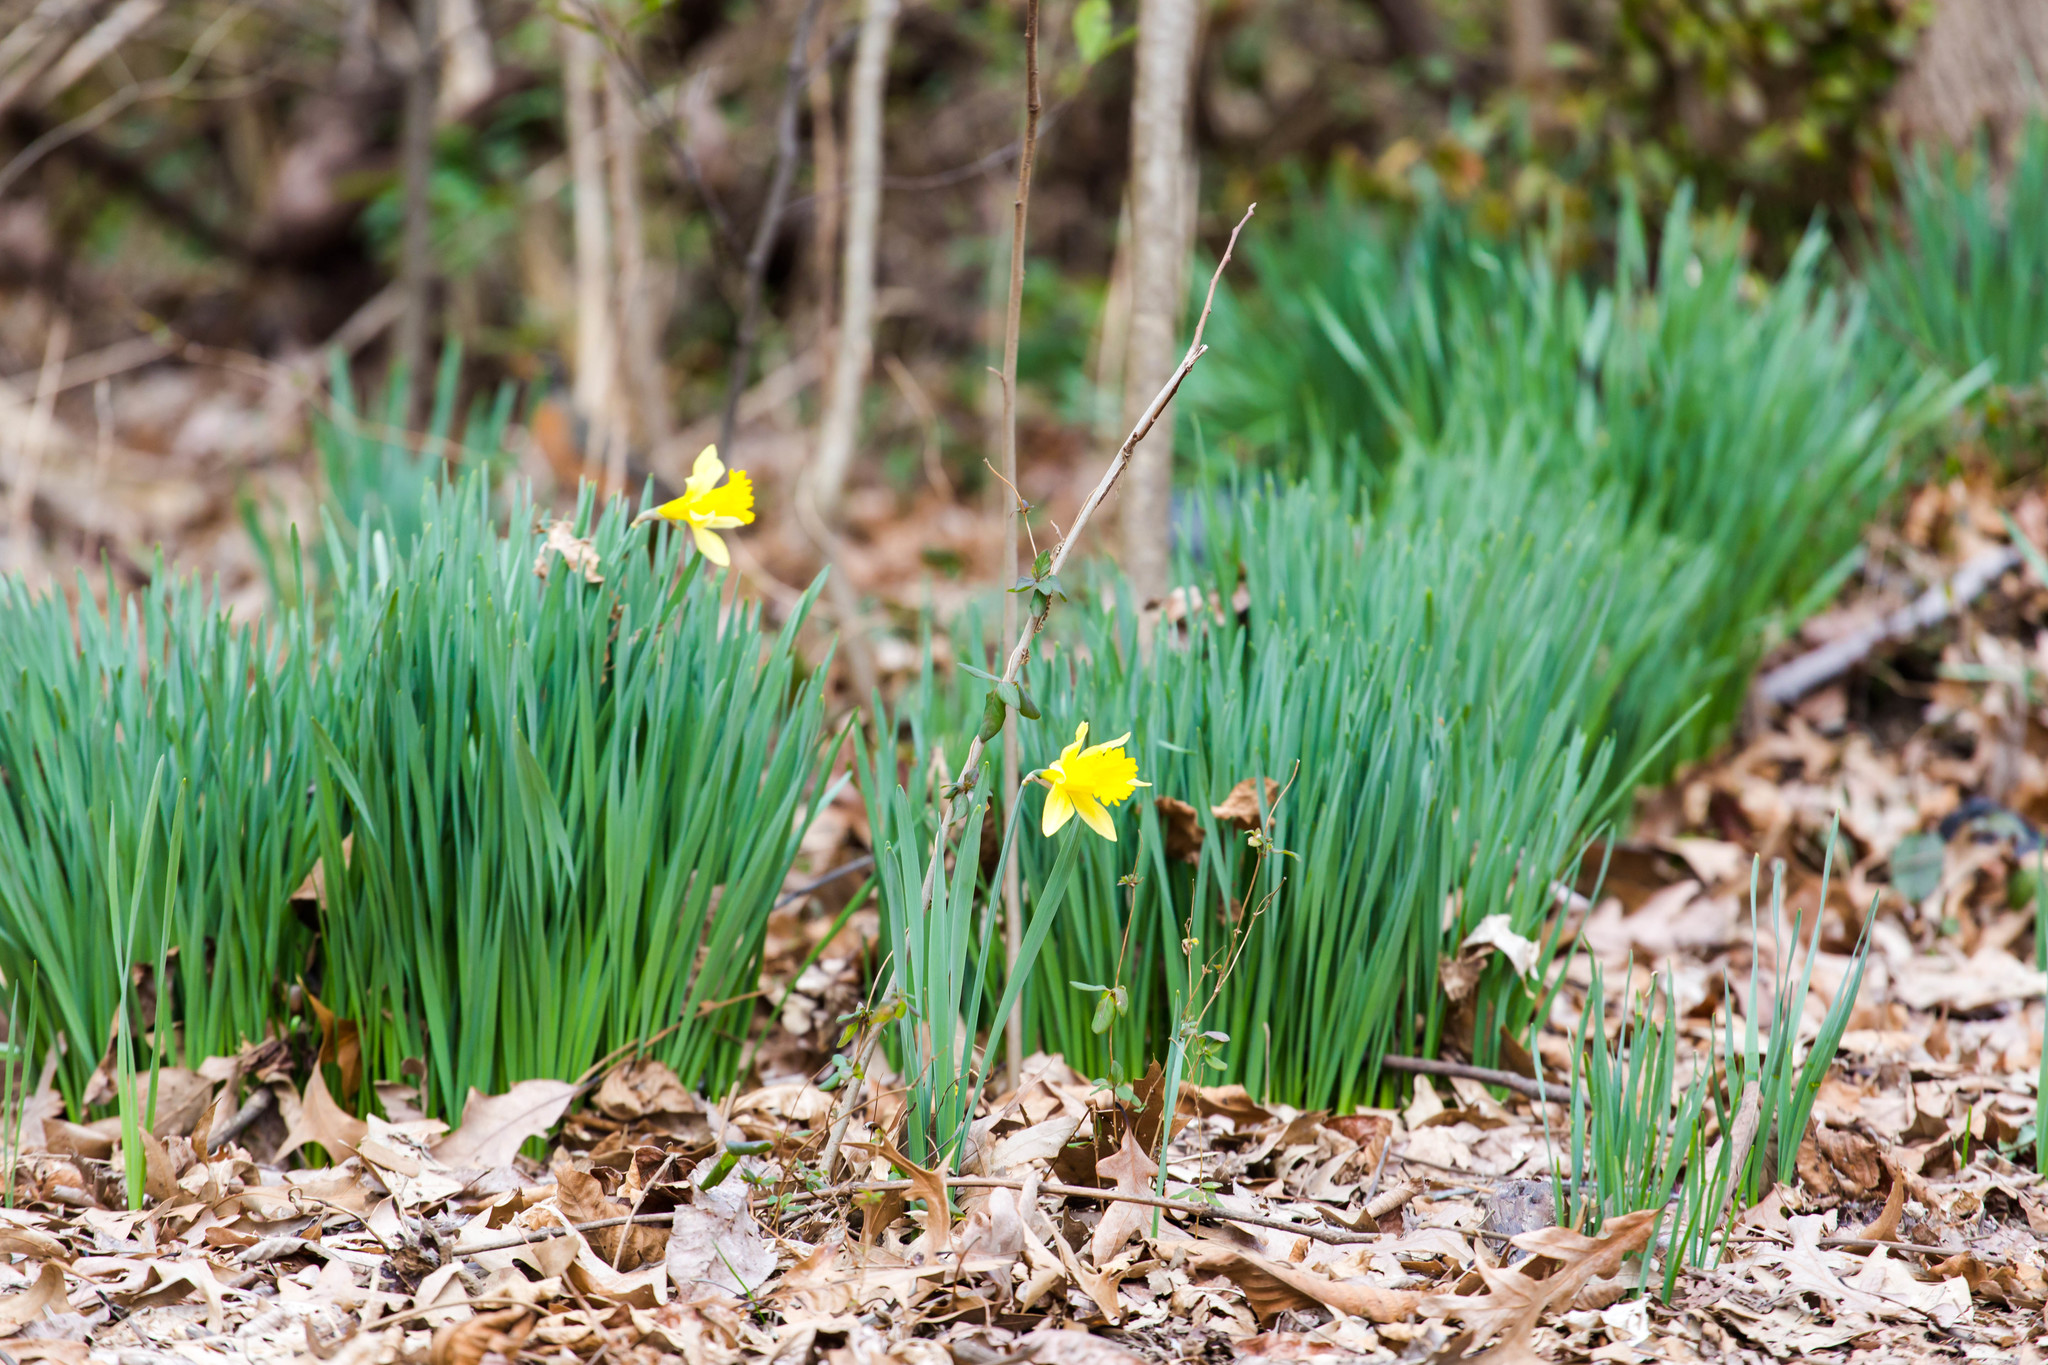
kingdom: Plantae
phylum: Tracheophyta
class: Liliopsida
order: Asparagales
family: Amaryllidaceae
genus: Narcissus
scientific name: Narcissus pseudonarcissus
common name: Daffodil
